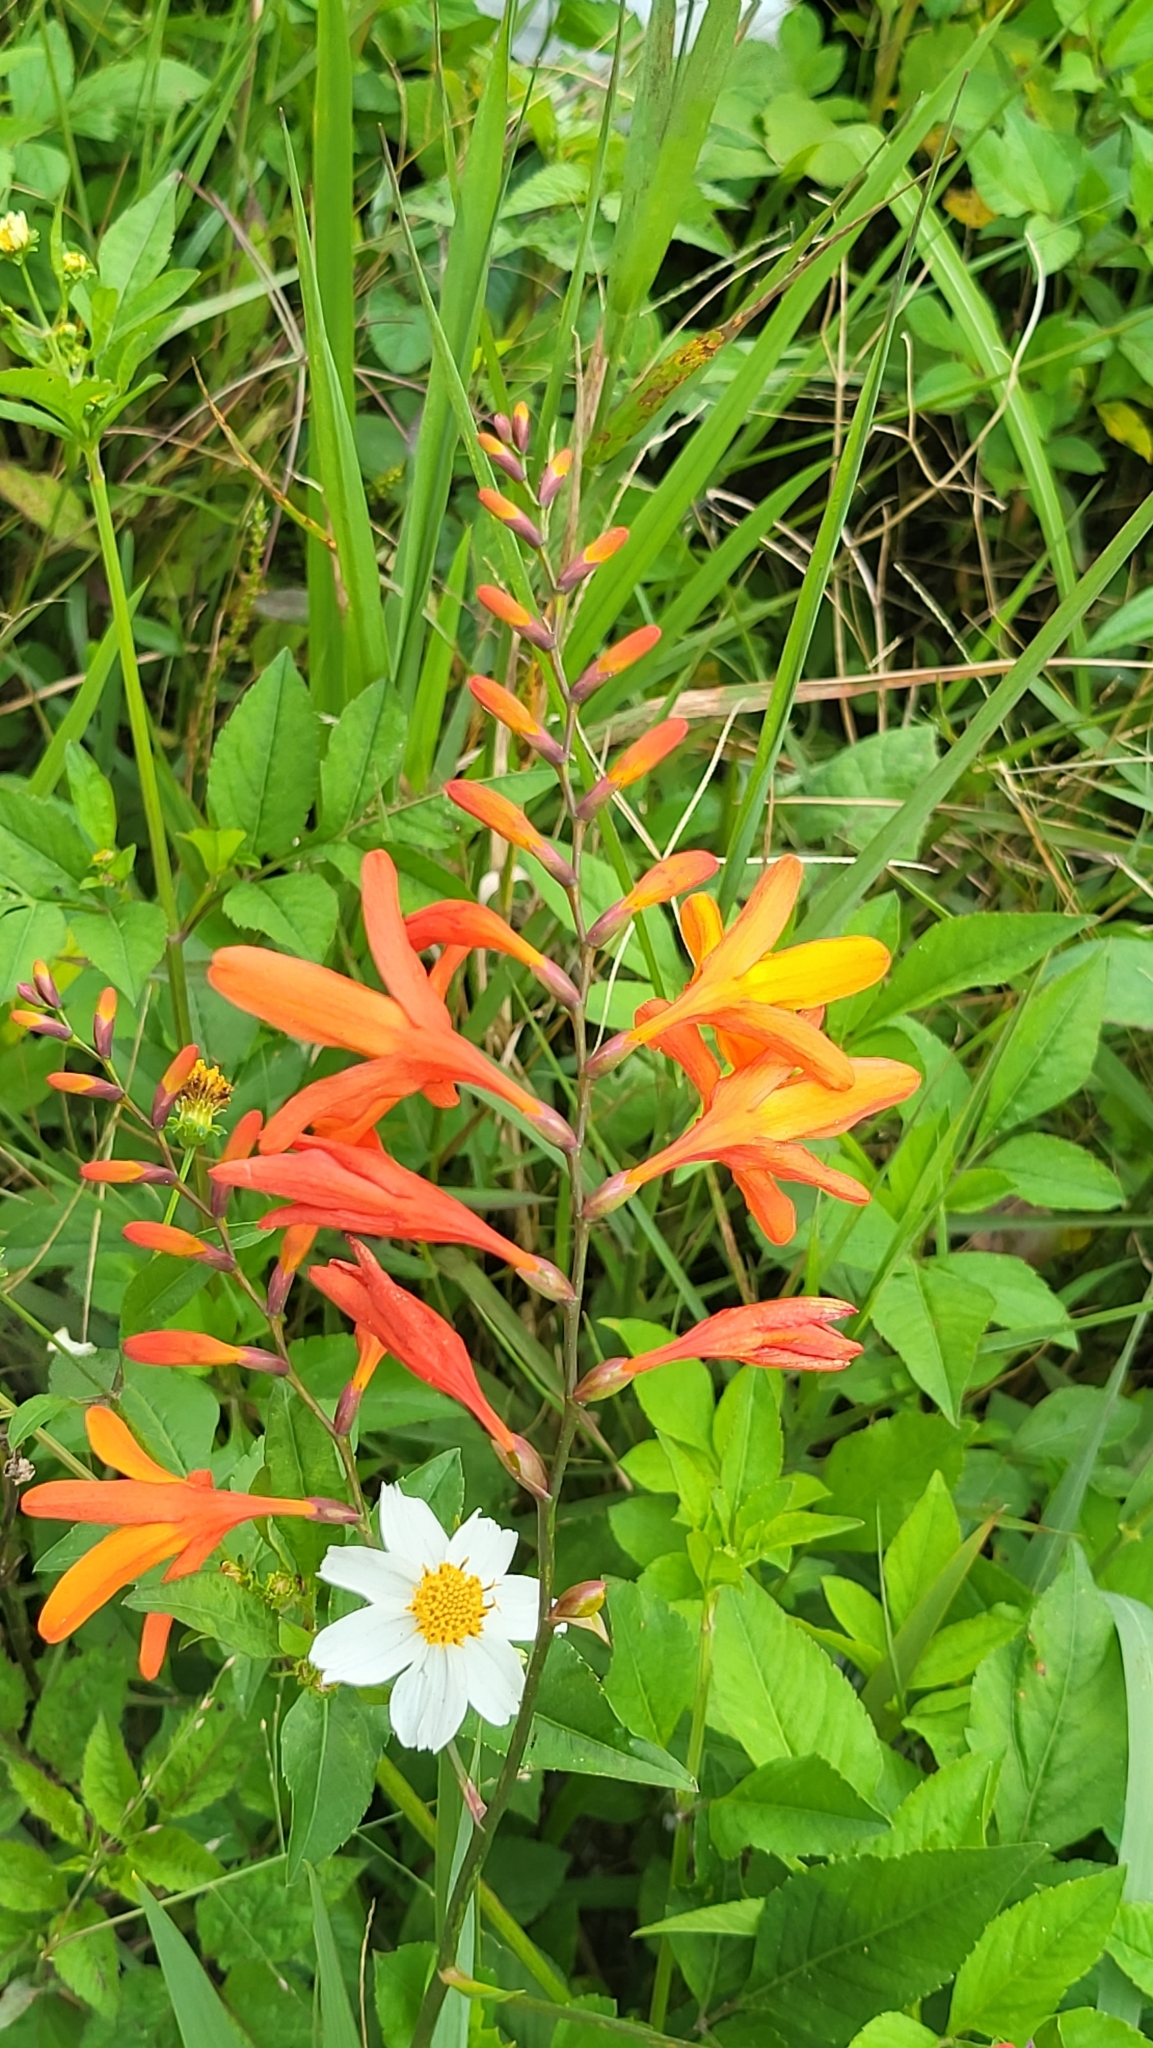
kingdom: Plantae
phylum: Tracheophyta
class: Liliopsida
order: Asparagales
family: Iridaceae
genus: Crocosmia
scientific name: Crocosmia crocosmiiflora
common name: Montbretia
